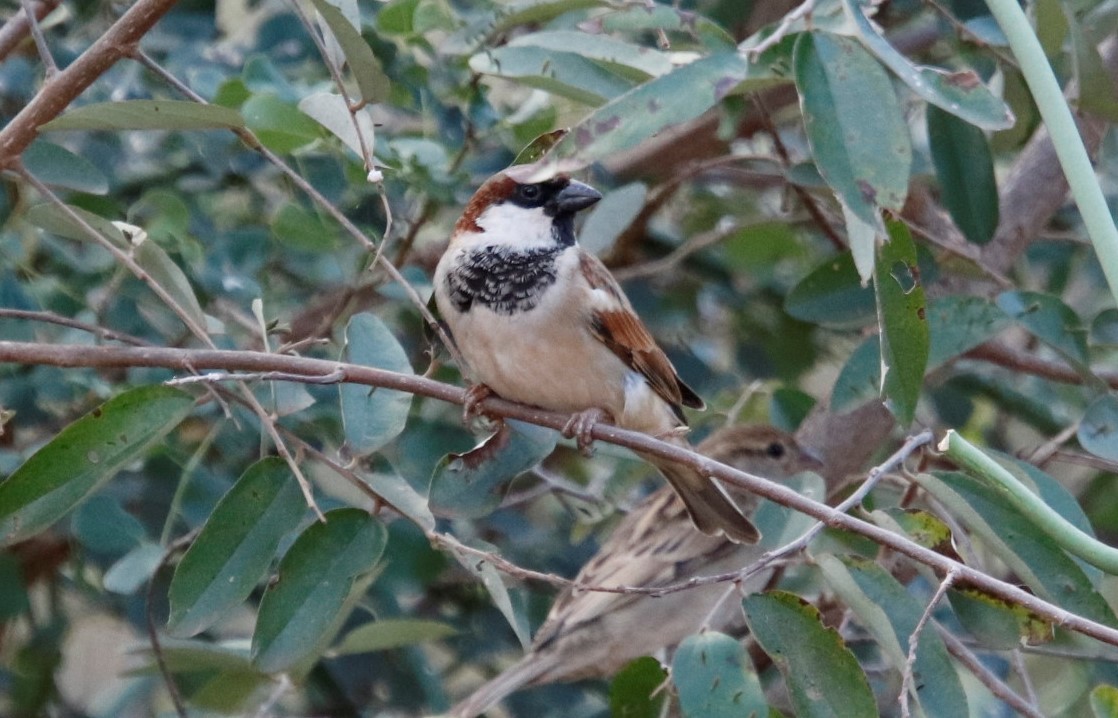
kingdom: Animalia
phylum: Chordata
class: Aves
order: Passeriformes
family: Passeridae
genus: Passer
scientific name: Passer domesticus
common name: House sparrow
